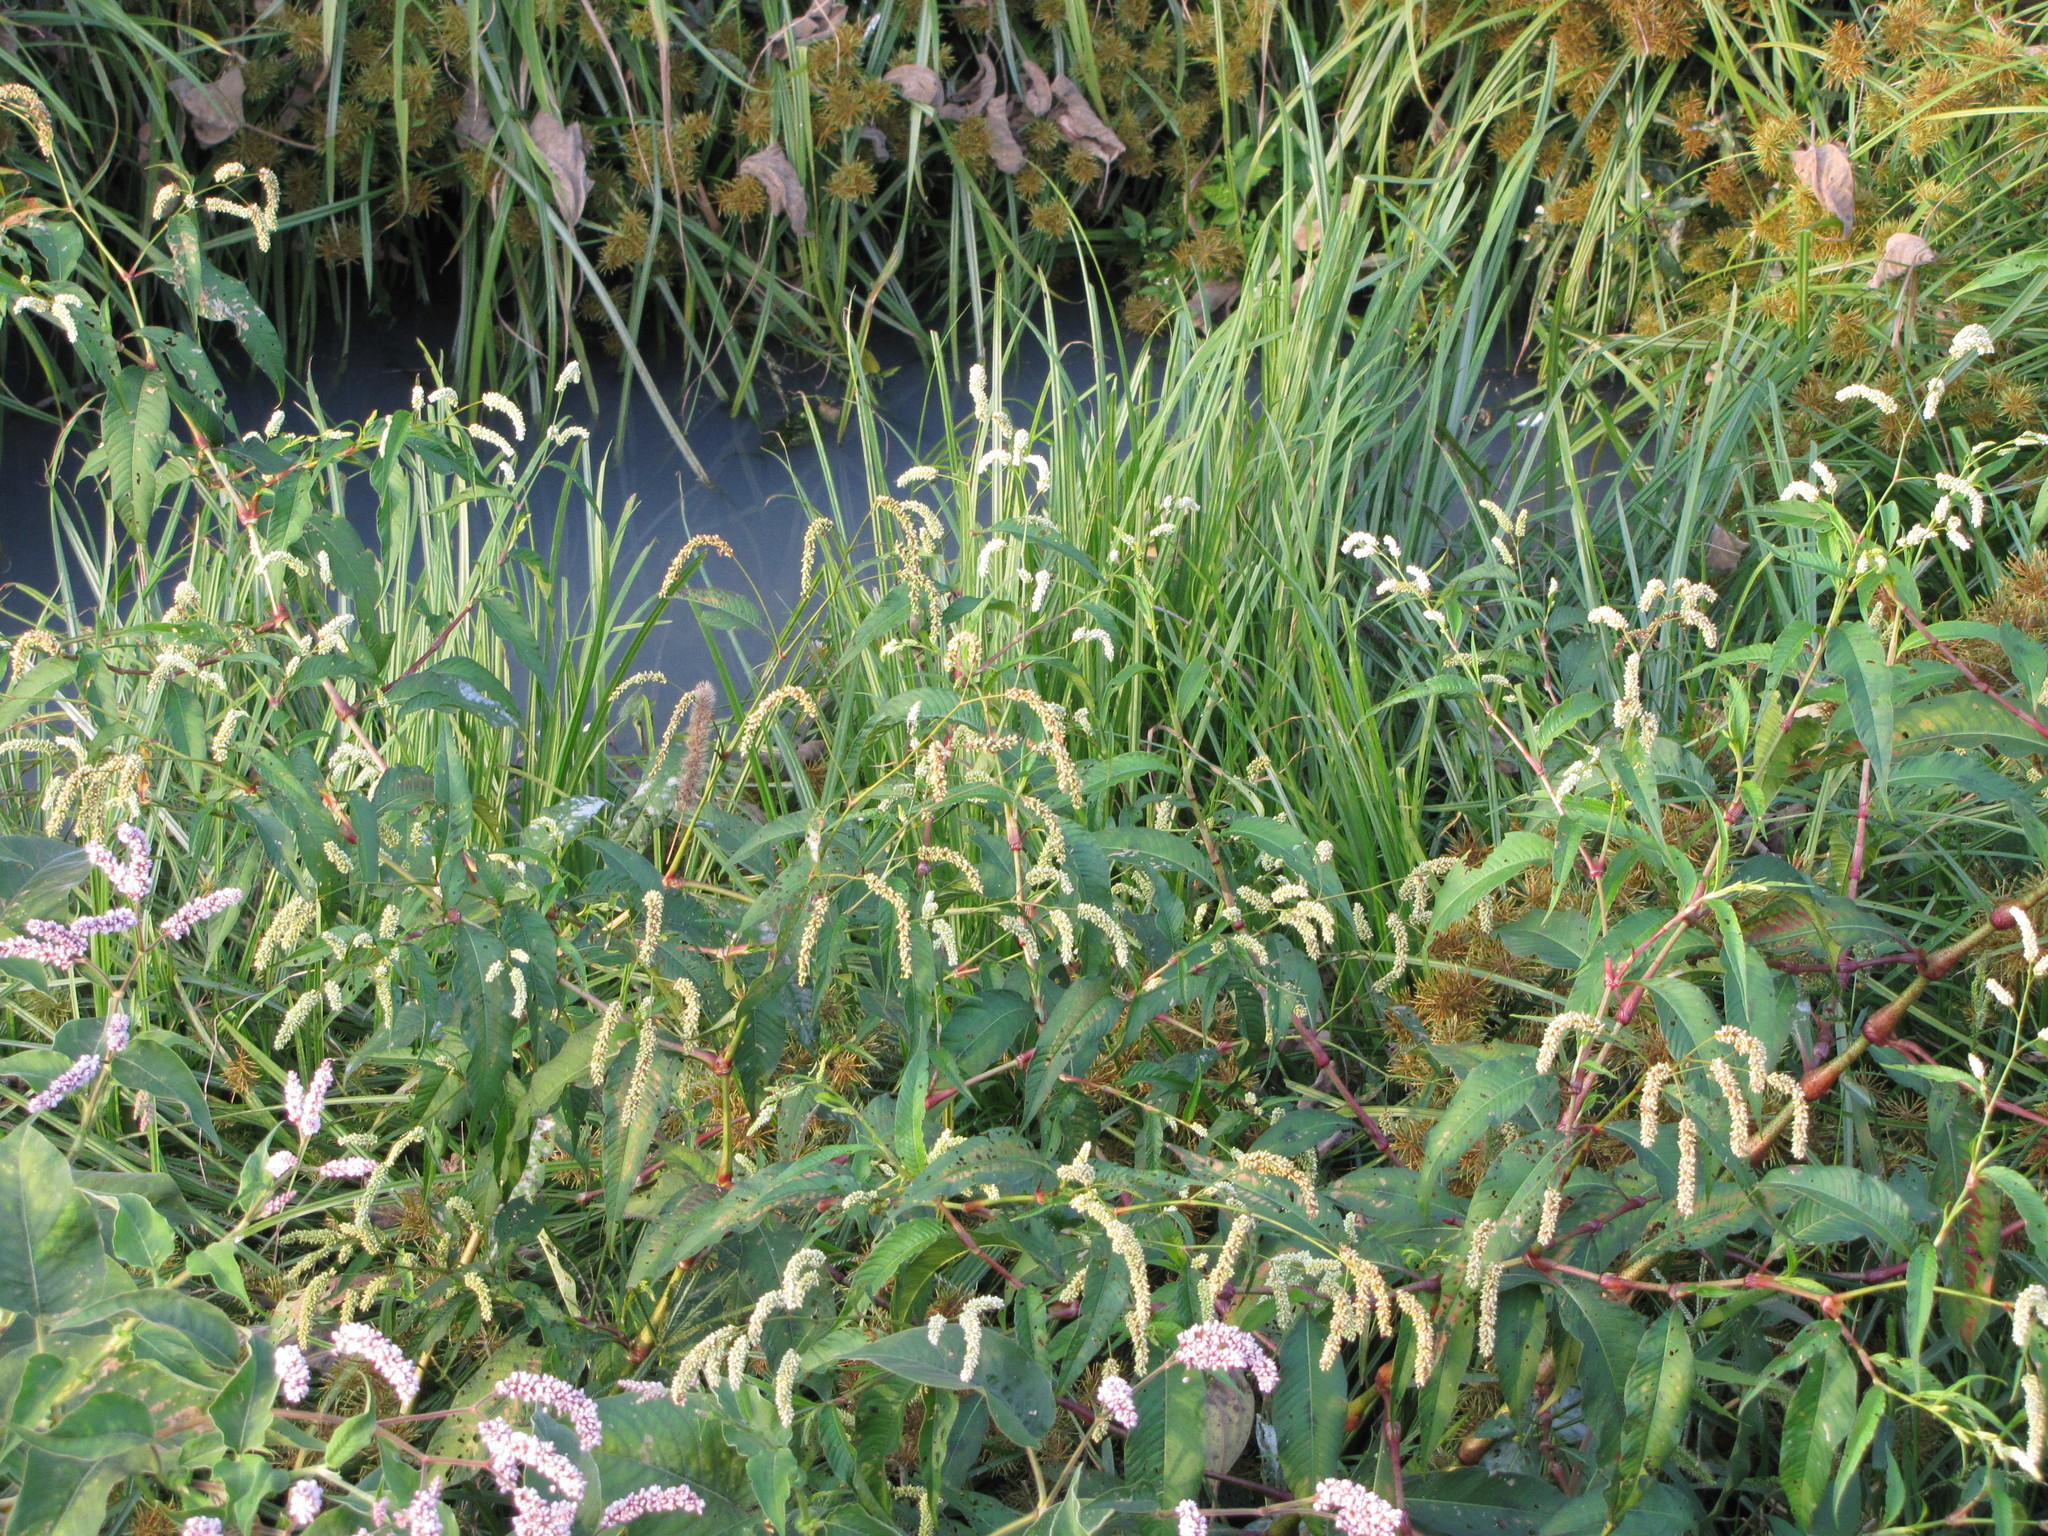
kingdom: Plantae
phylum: Tracheophyta
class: Magnoliopsida
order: Caryophyllales
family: Polygonaceae
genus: Persicaria
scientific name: Persicaria lapathifolia
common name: Curlytop knotweed
